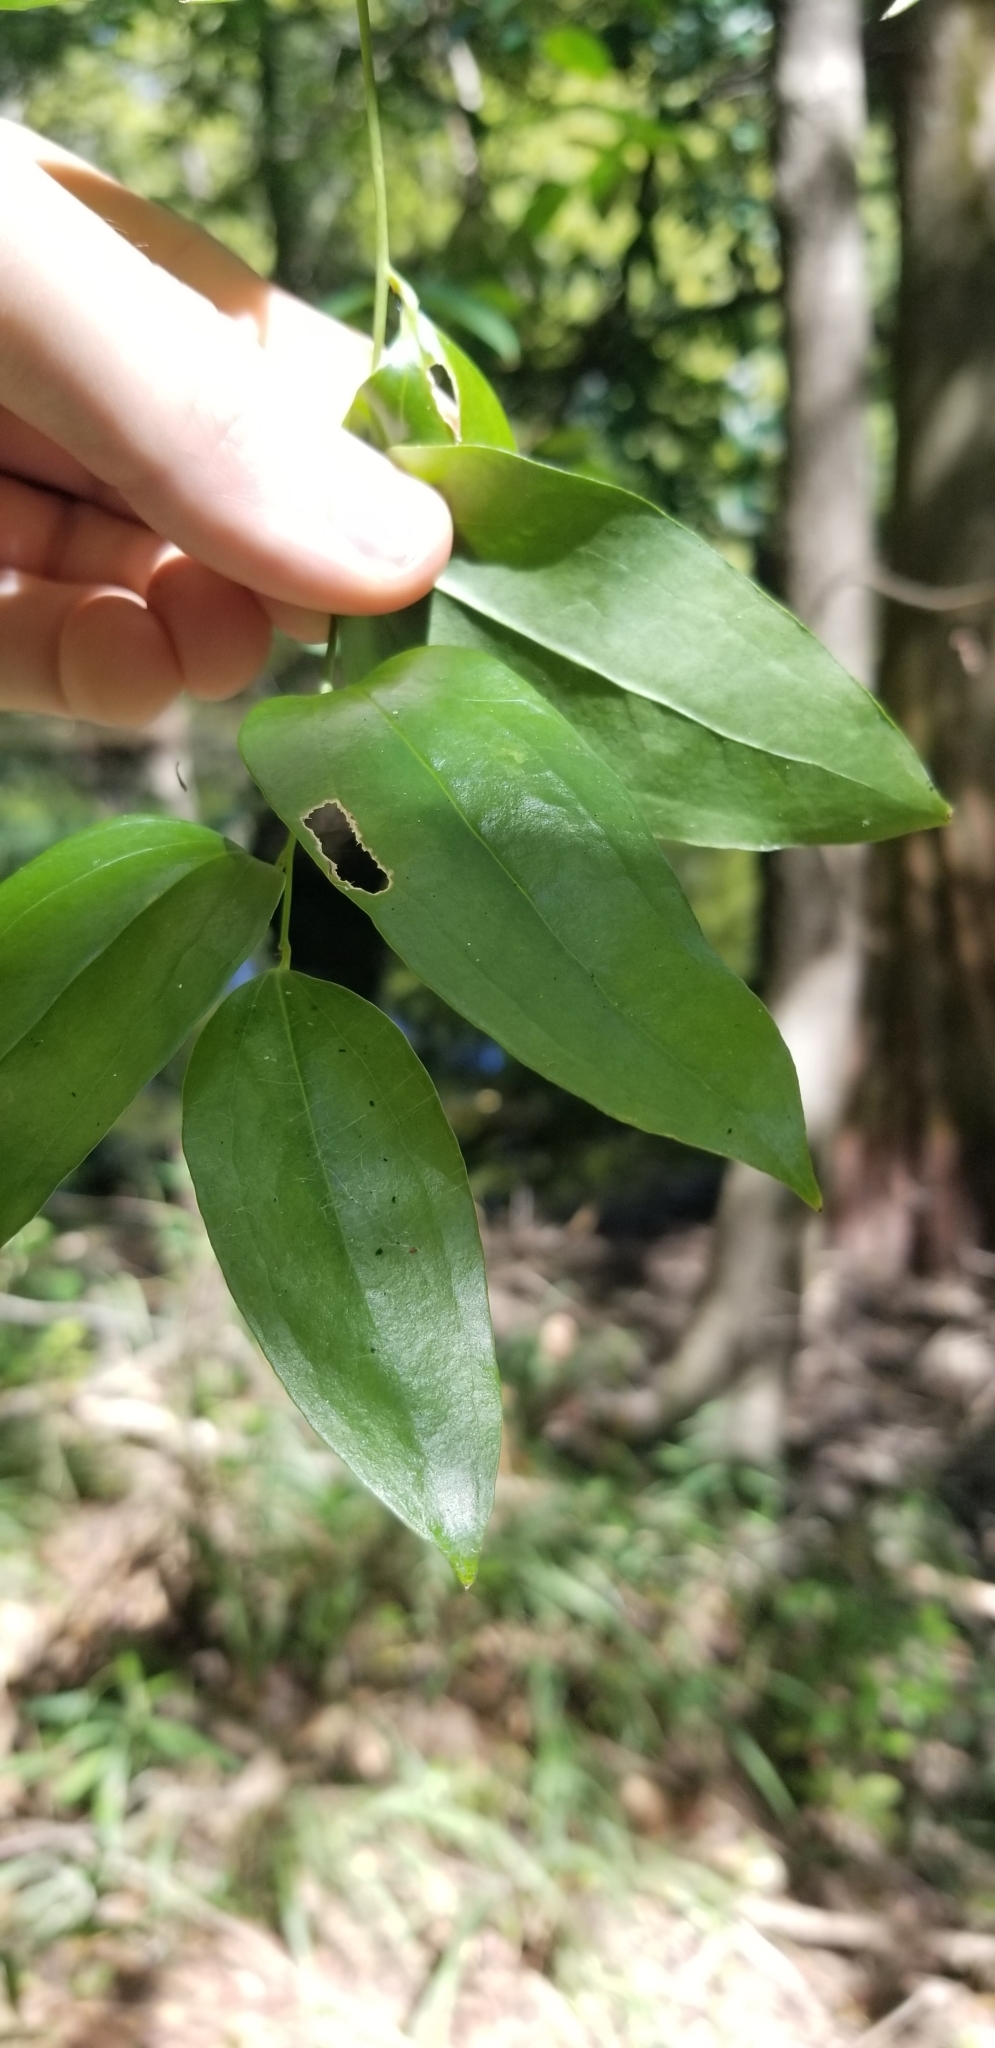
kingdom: Plantae
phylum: Tracheophyta
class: Liliopsida
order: Liliales
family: Smilacaceae
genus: Smilax
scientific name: Smilax maritima
